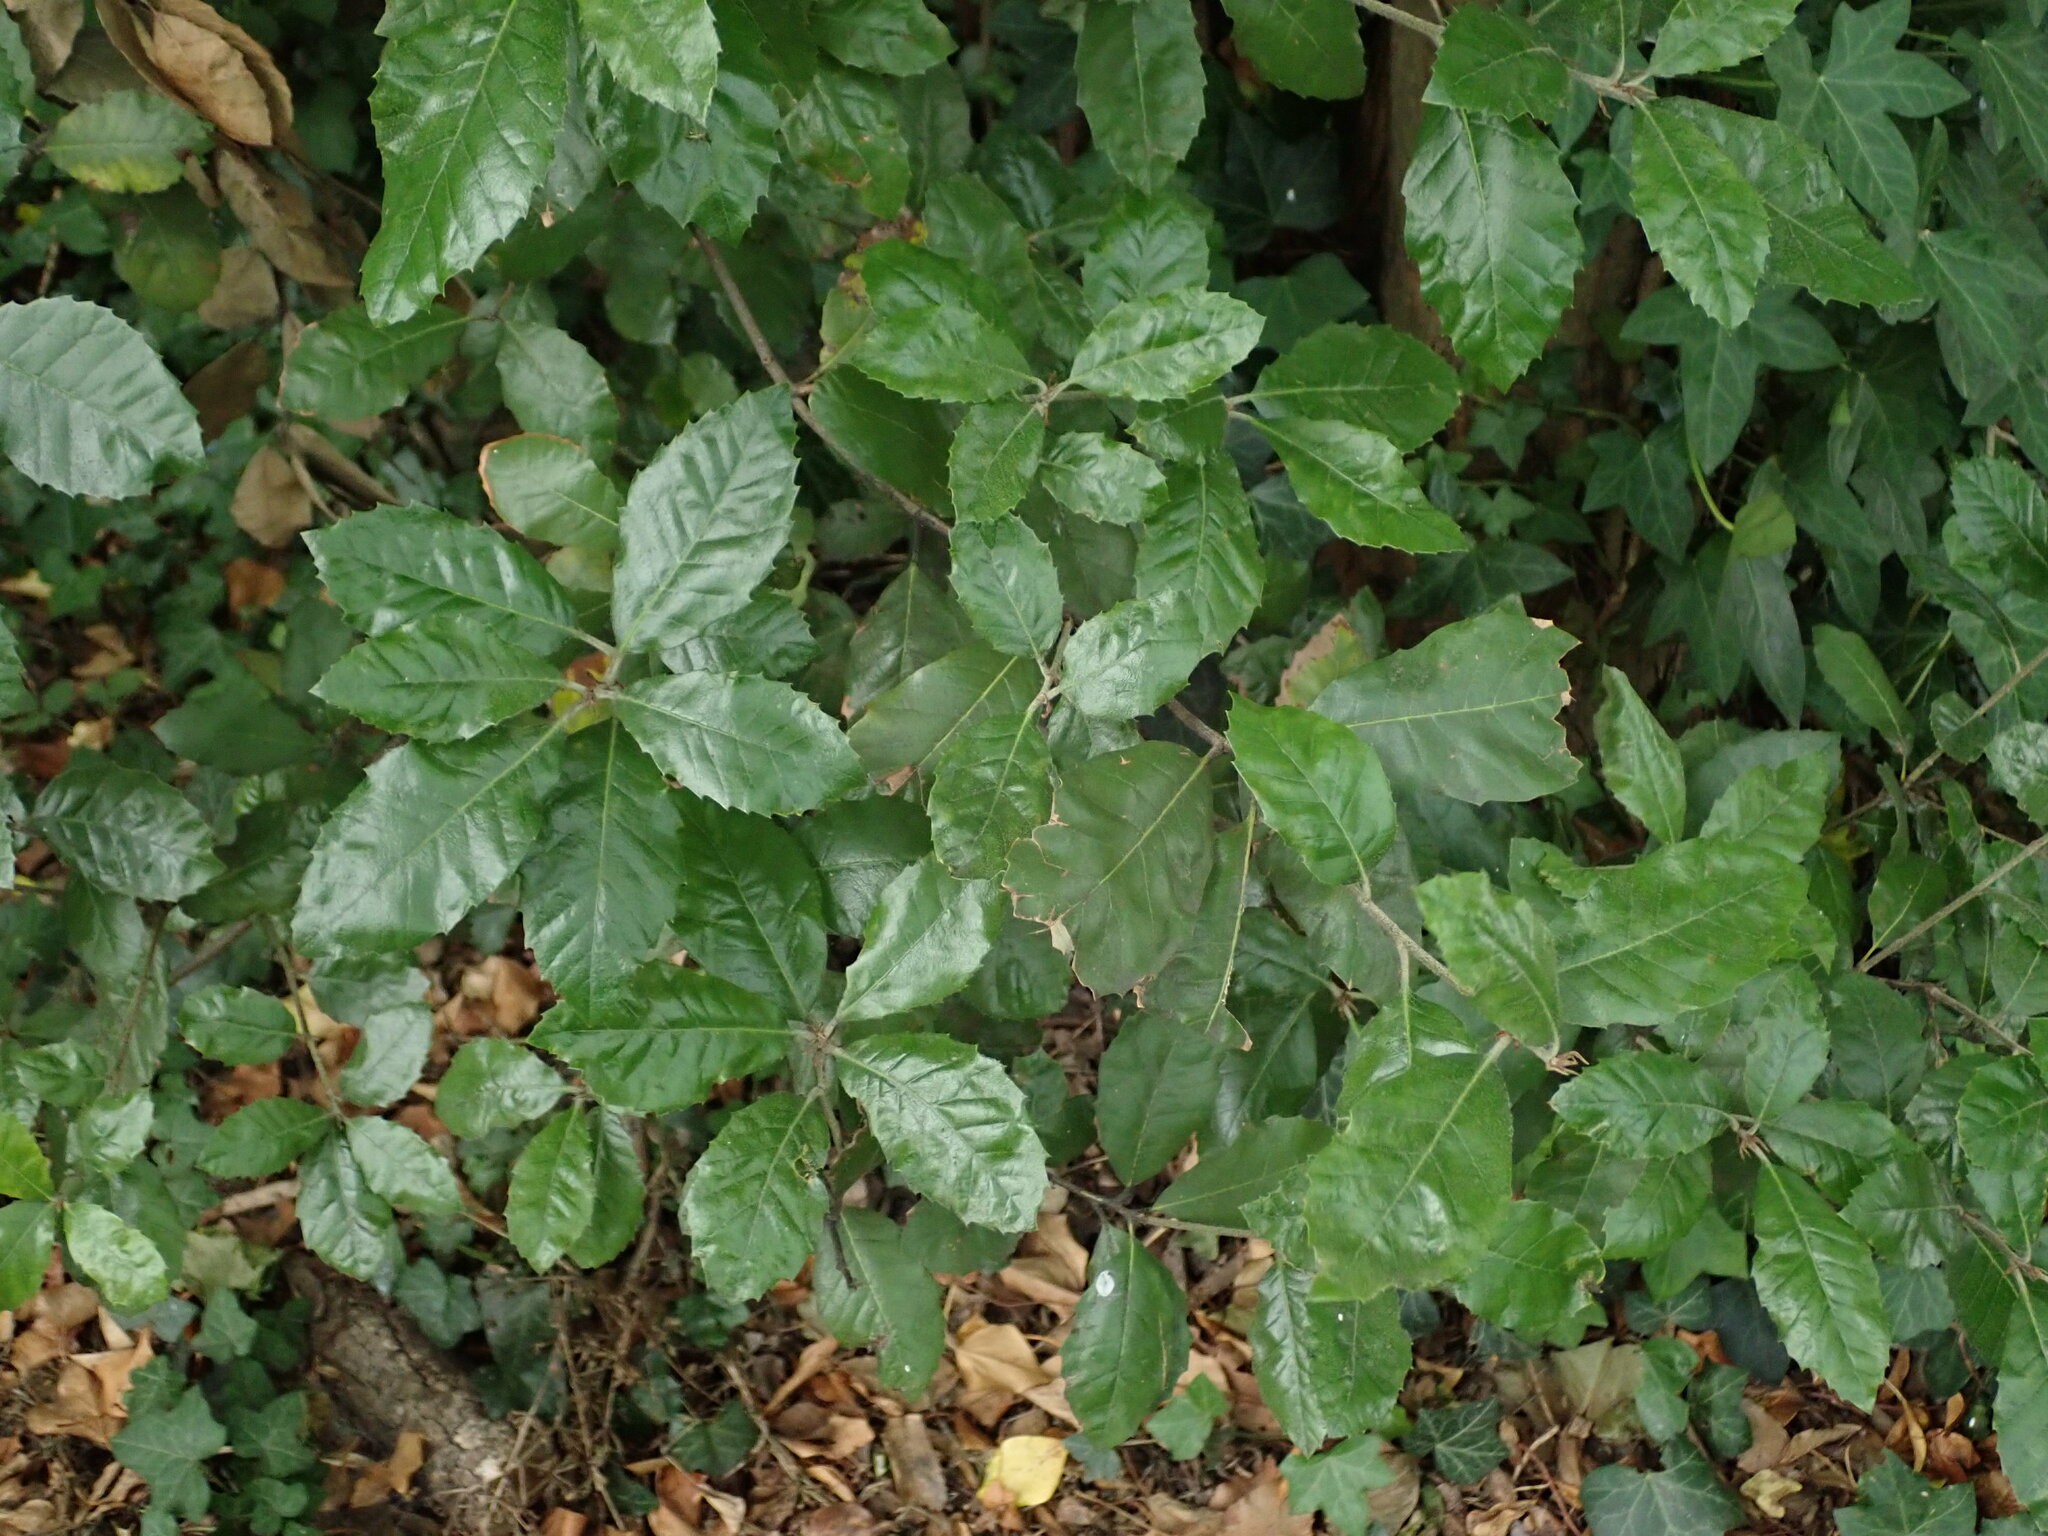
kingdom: Plantae
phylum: Tracheophyta
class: Magnoliopsida
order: Fagales
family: Fagaceae
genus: Quercus
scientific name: Quercus ilex
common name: Evergreen oak
